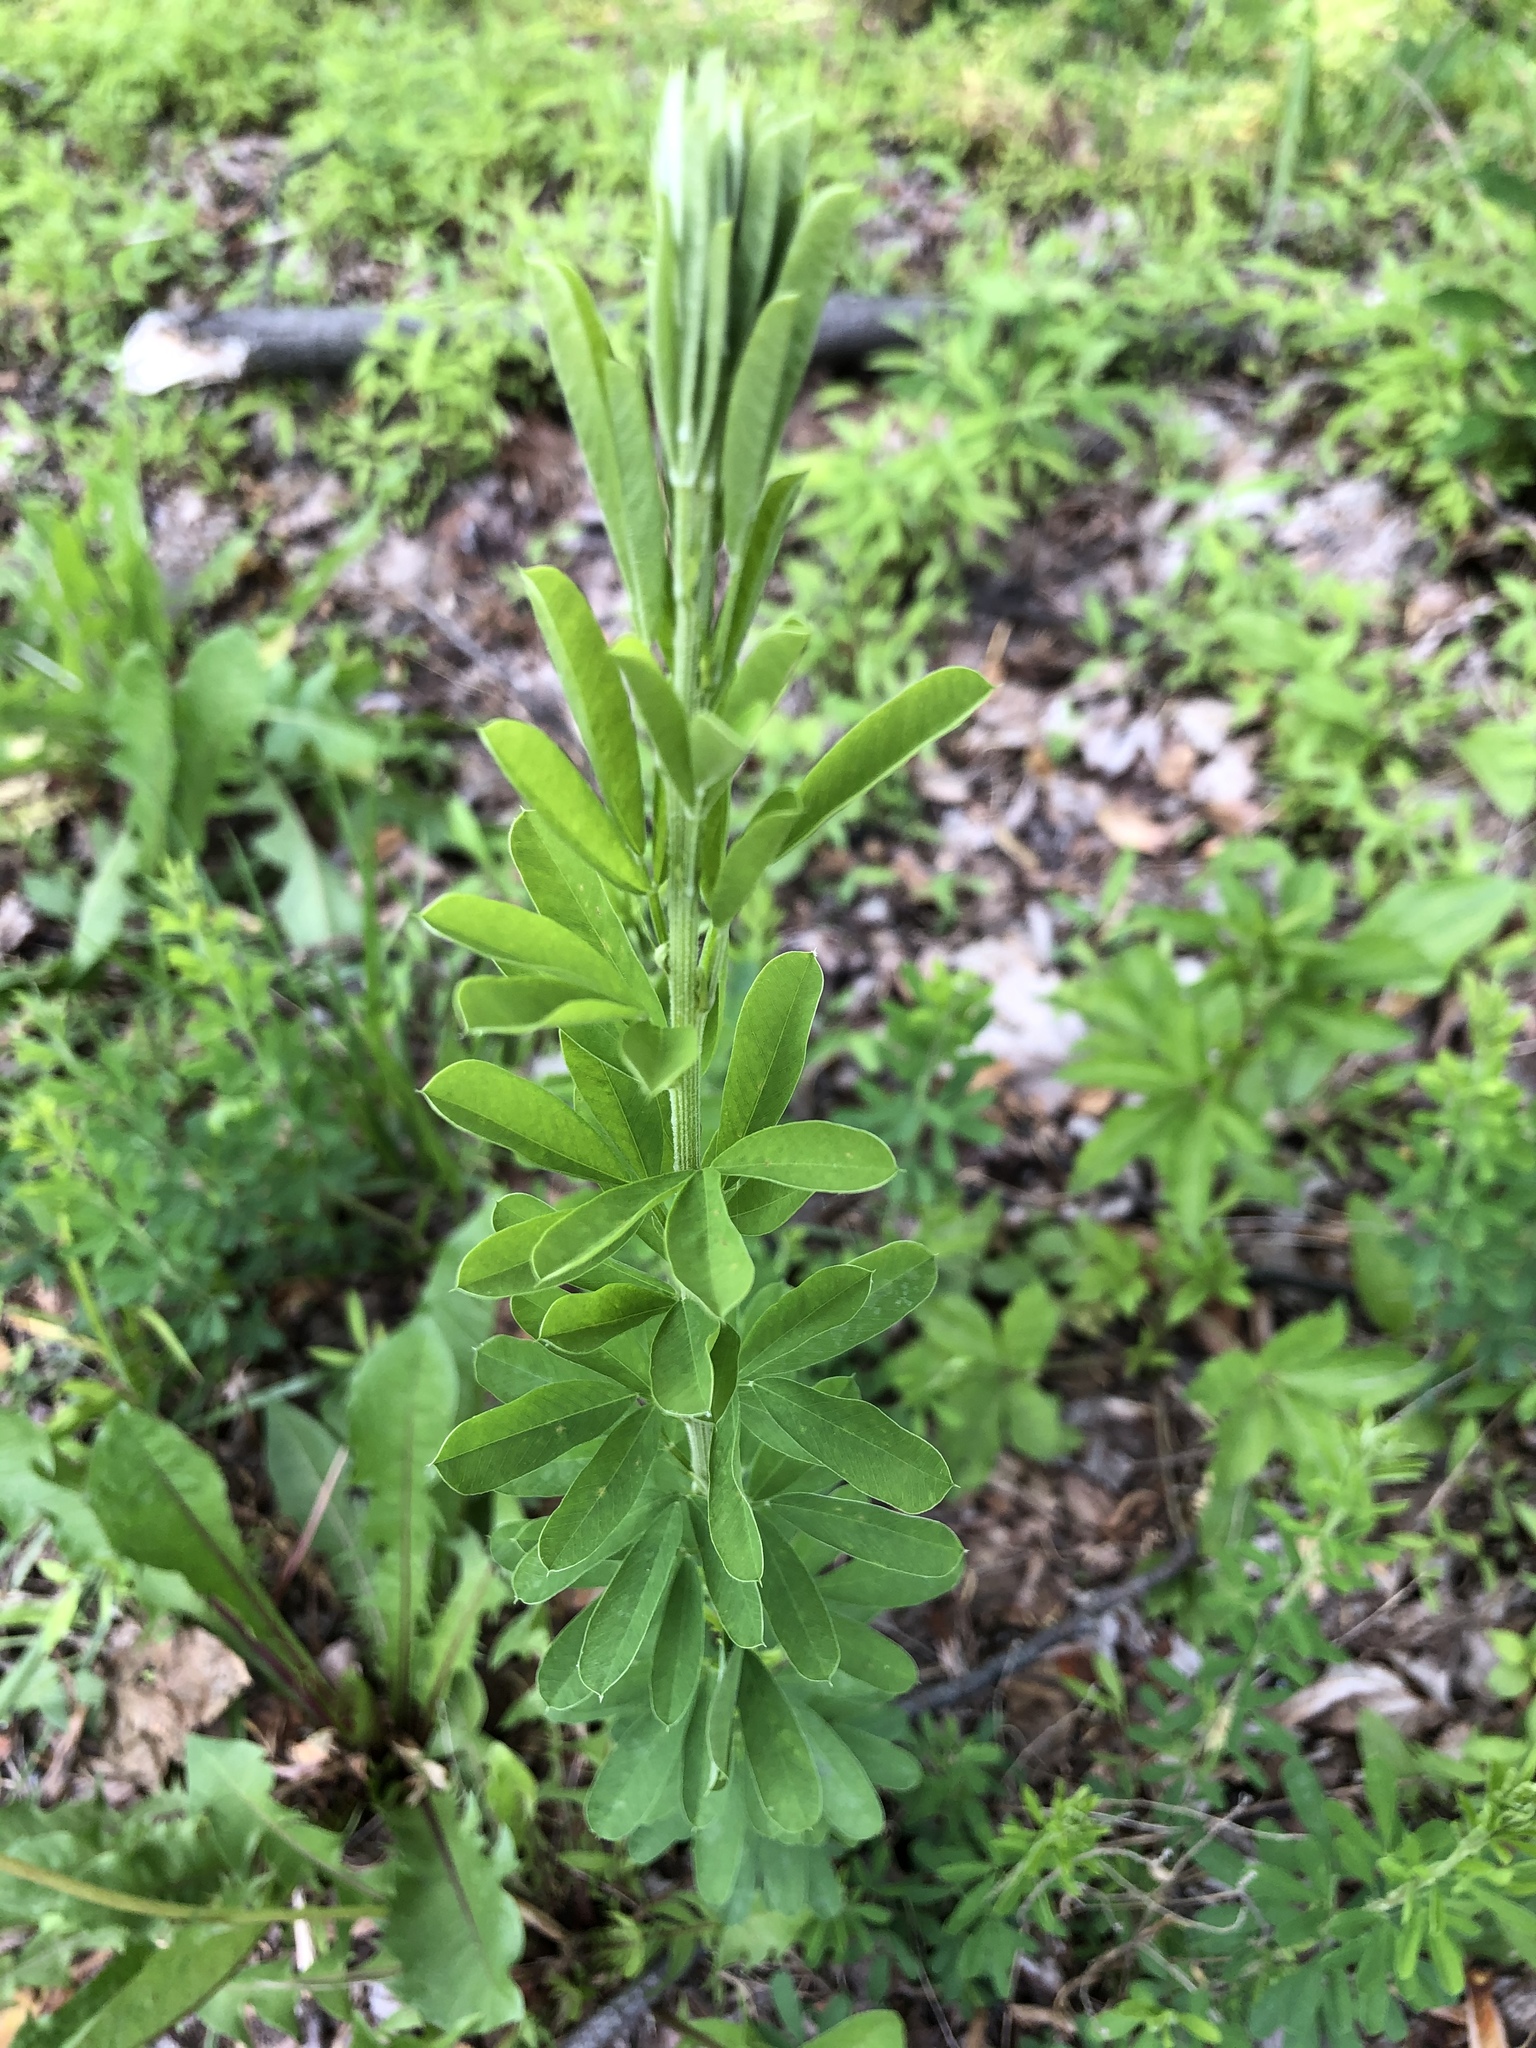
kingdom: Plantae
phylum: Tracheophyta
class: Magnoliopsida
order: Fabales
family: Fabaceae
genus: Lespedeza
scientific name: Lespedeza cuneata
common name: Chinese bush-clover
